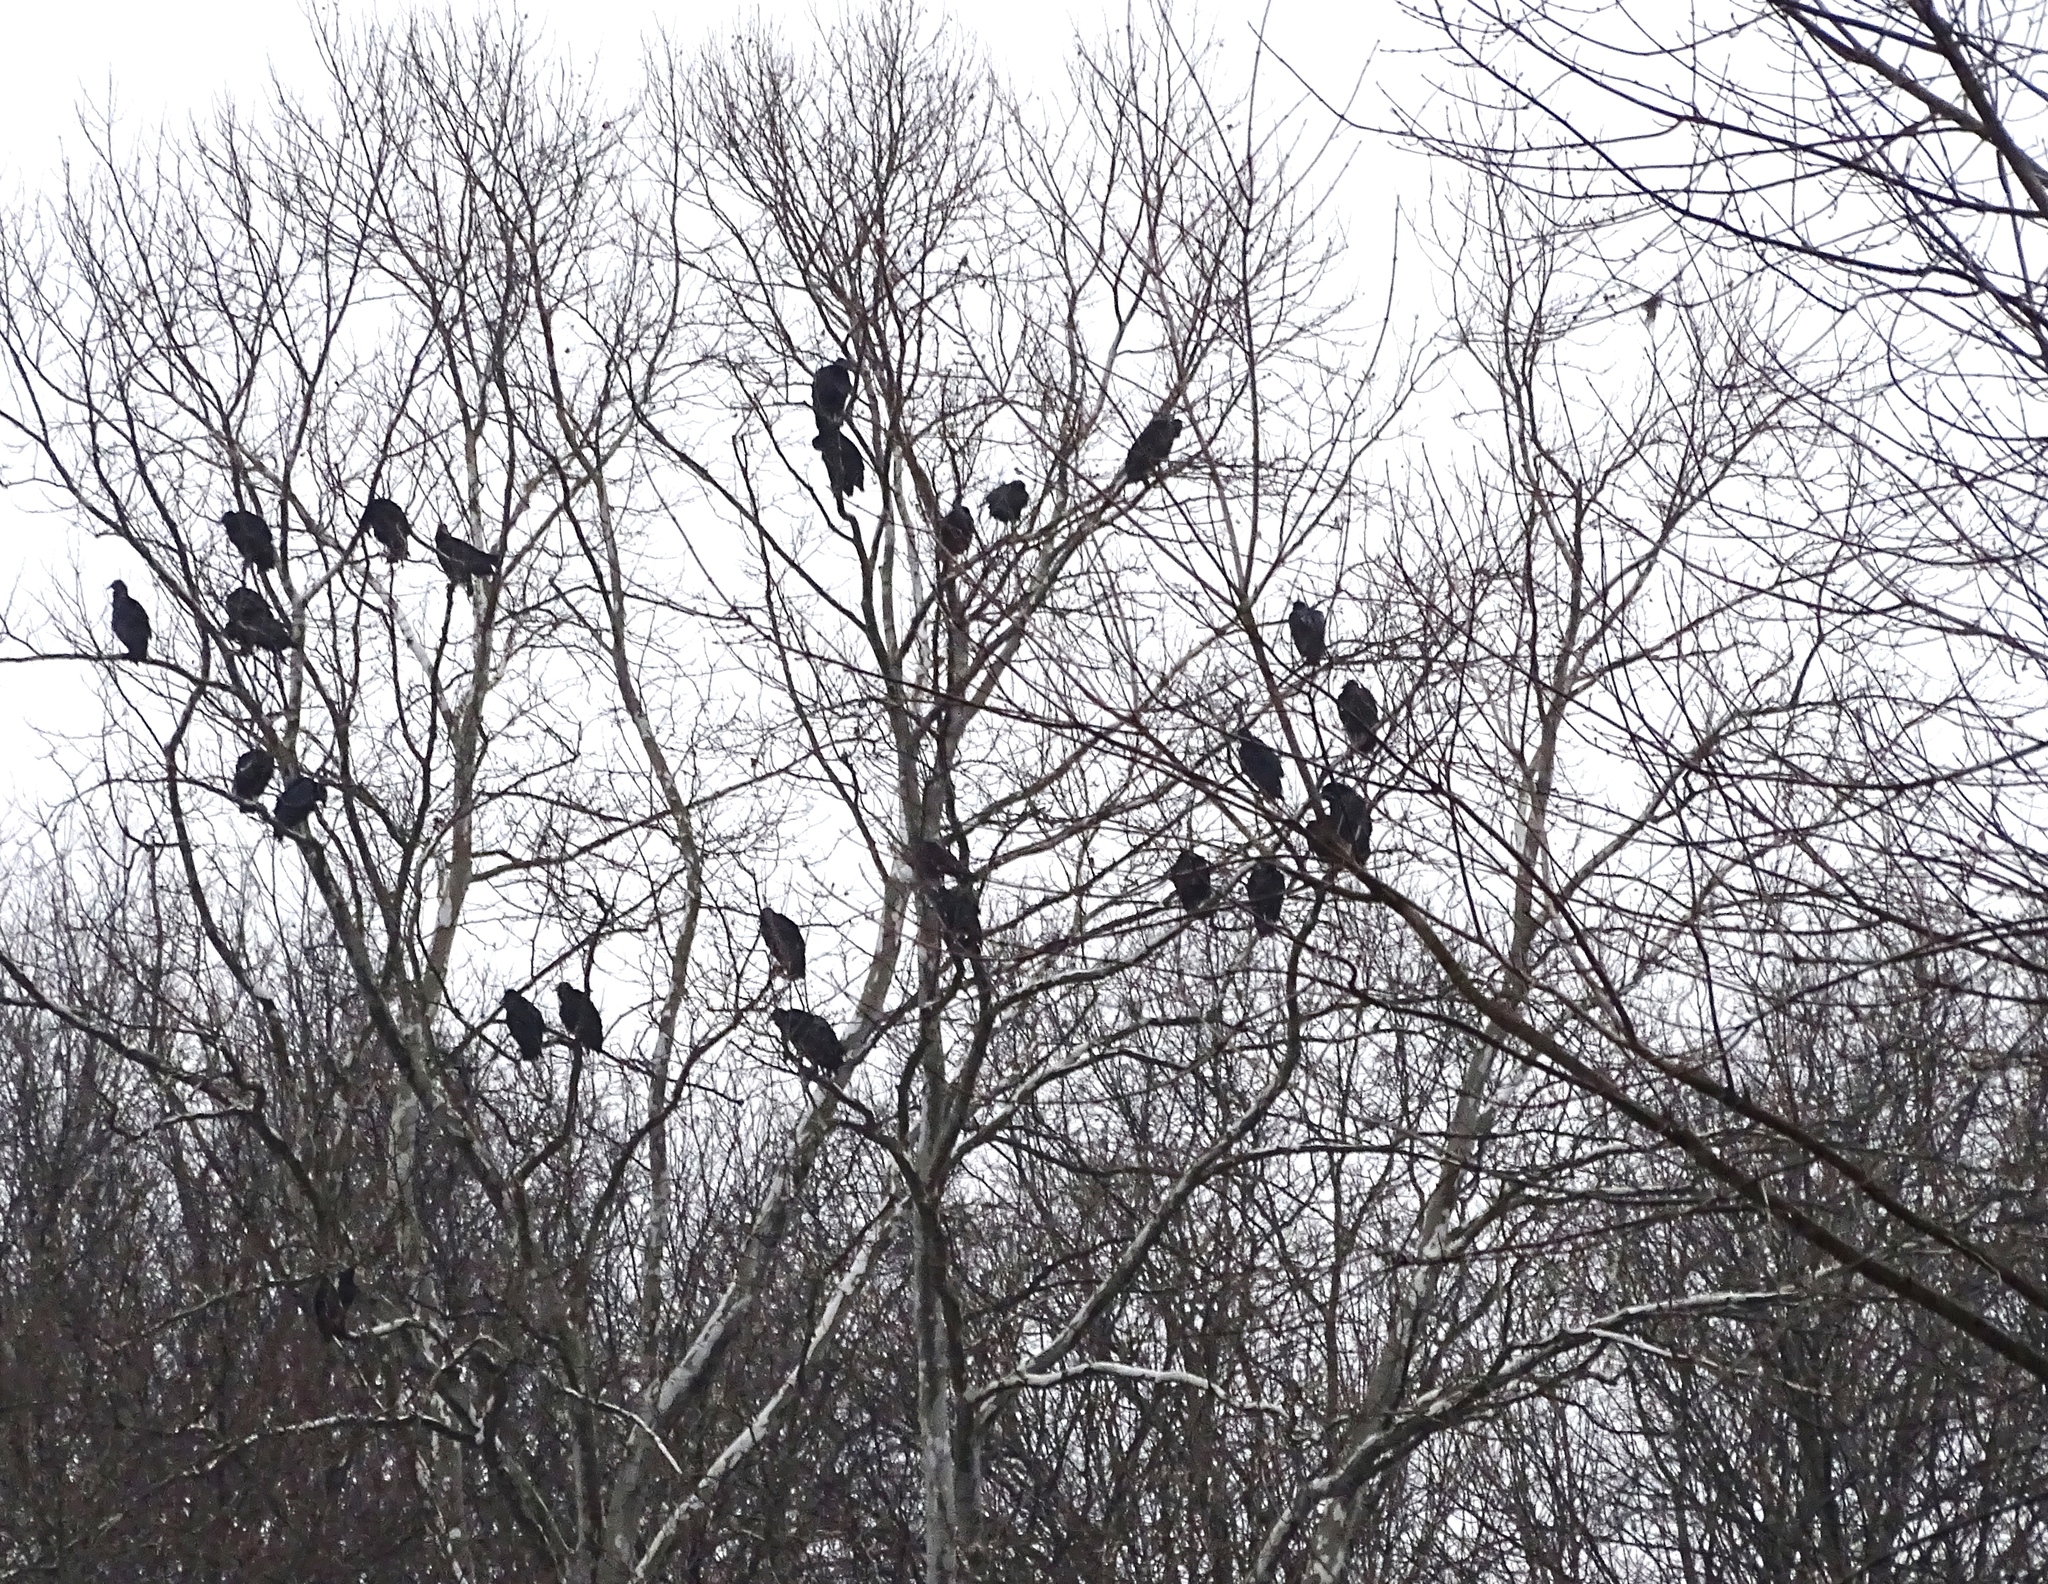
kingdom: Animalia
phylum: Chordata
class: Aves
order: Accipitriformes
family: Cathartidae
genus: Coragyps
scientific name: Coragyps atratus
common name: Black vulture
